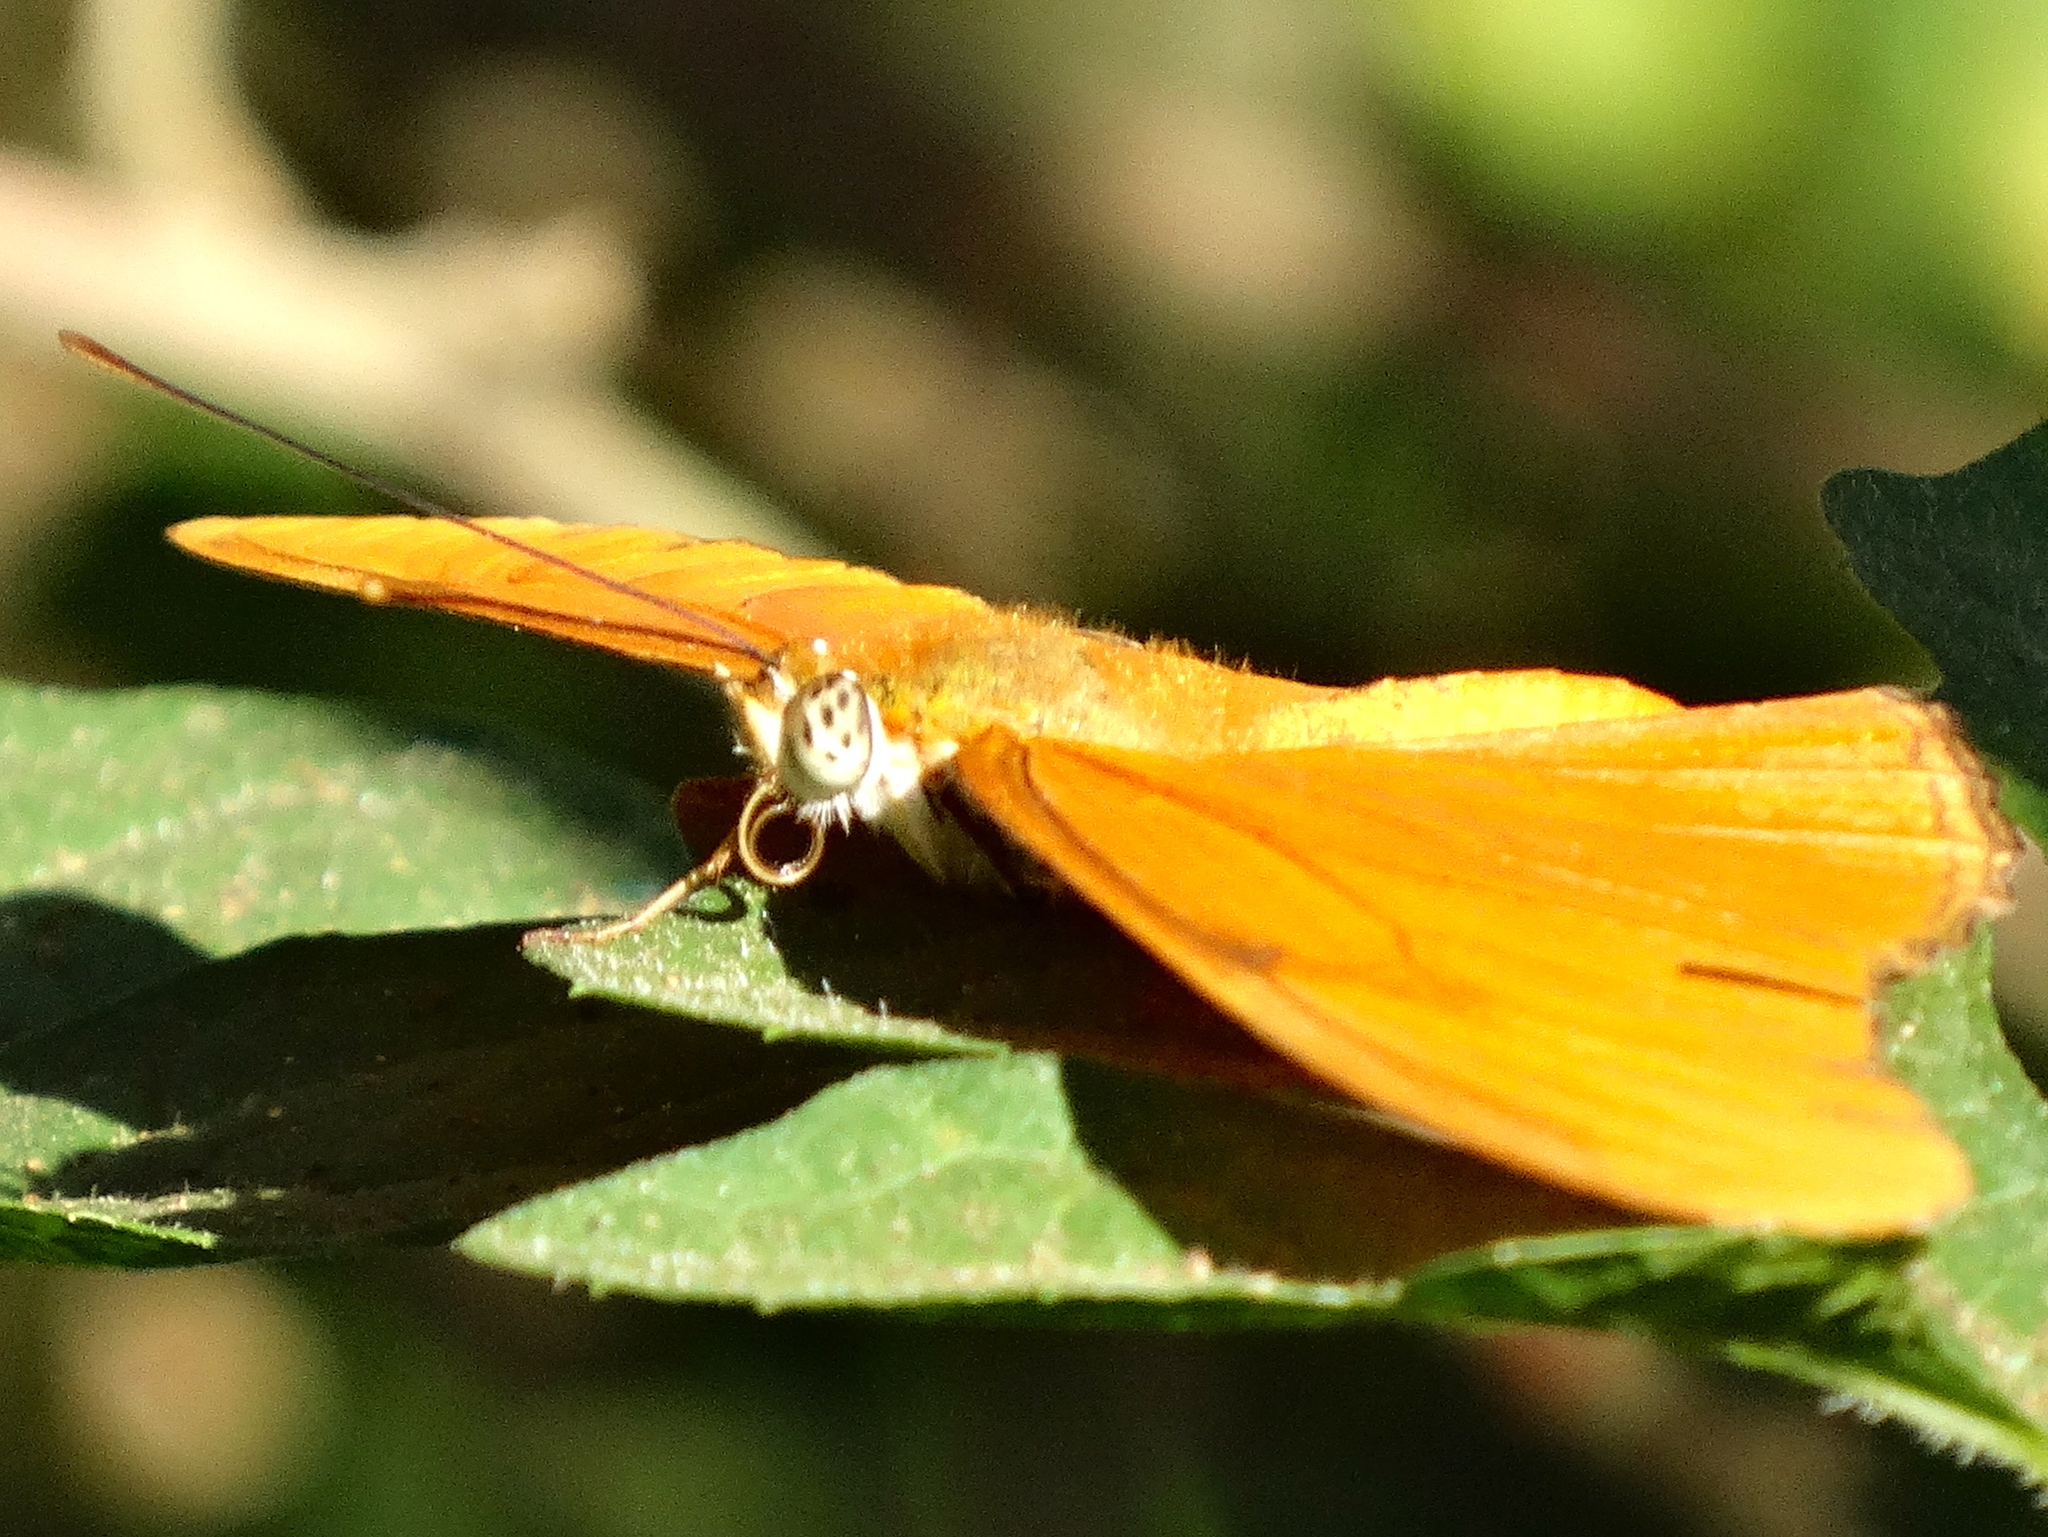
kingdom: Animalia
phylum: Arthropoda
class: Insecta
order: Lepidoptera
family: Nymphalidae
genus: Dryas
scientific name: Dryas iulia
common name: Flambeau
